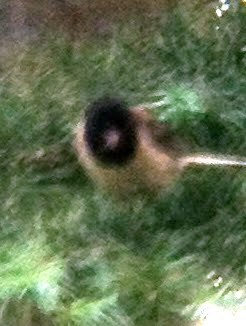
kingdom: Animalia
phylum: Chordata
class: Aves
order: Passeriformes
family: Passerellidae
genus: Junco
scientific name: Junco hyemalis
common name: Dark-eyed junco
